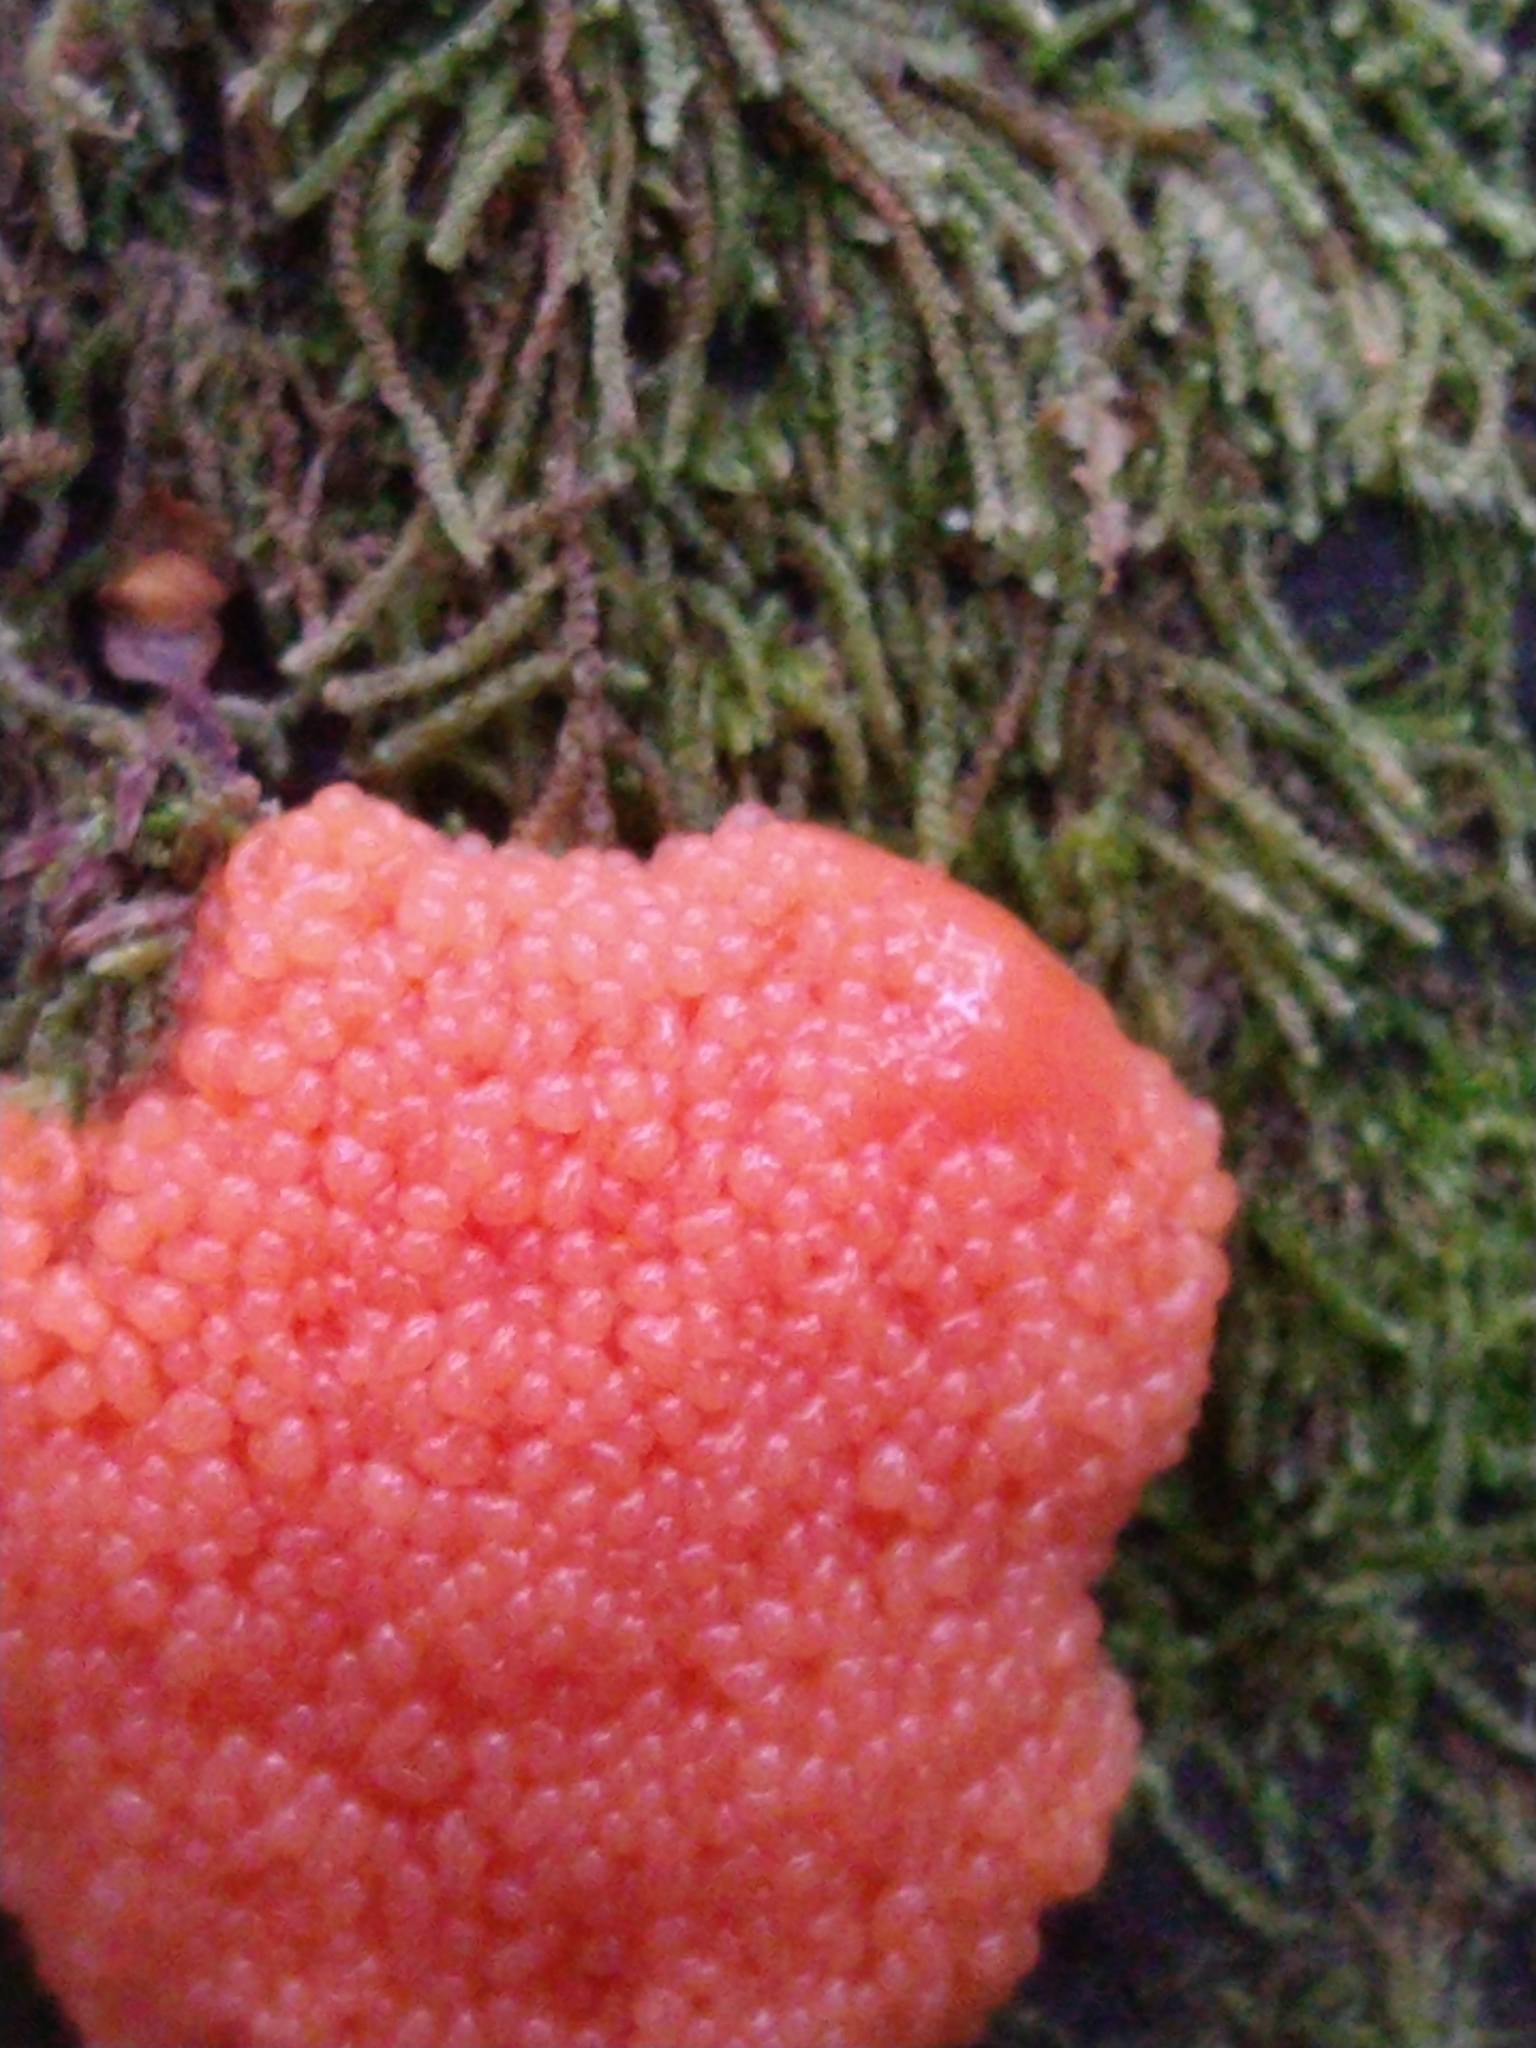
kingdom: Protozoa
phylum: Mycetozoa
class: Myxomycetes
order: Cribrariales
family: Tubiferaceae
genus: Tubifera
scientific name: Tubifera ferruginosa
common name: Red raspberry slime mold
